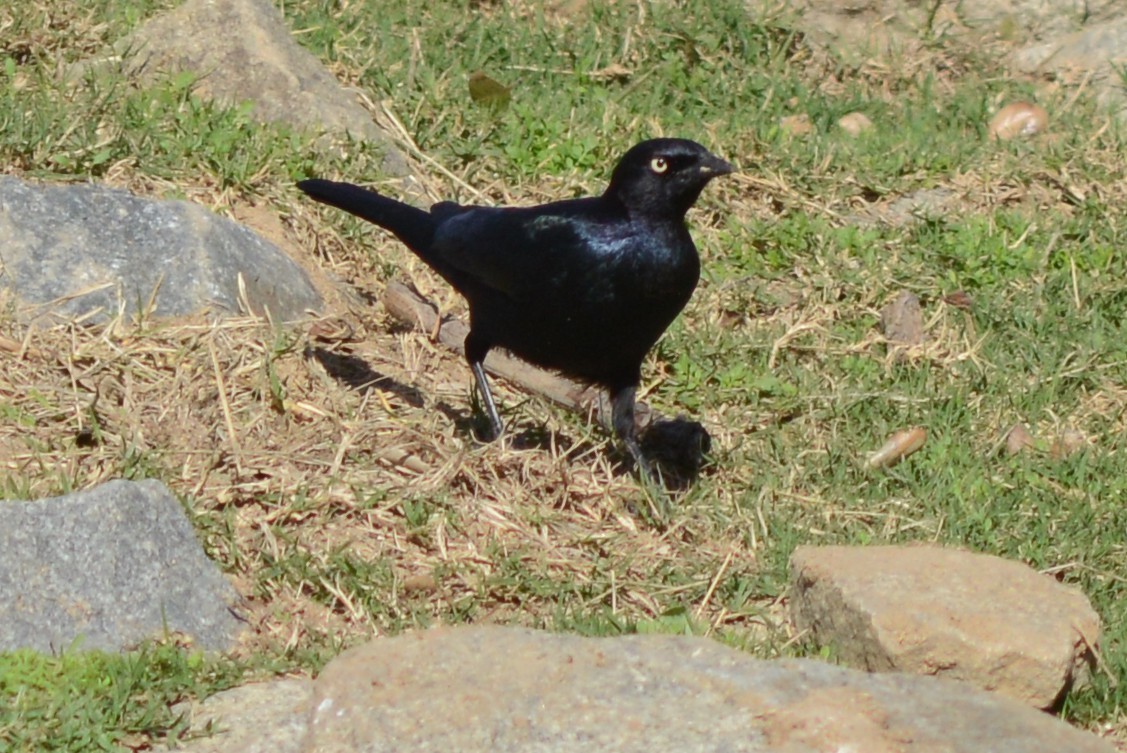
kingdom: Animalia
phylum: Chordata
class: Aves
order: Passeriformes
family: Icteridae
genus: Euphagus
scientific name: Euphagus cyanocephalus
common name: Brewer's blackbird
